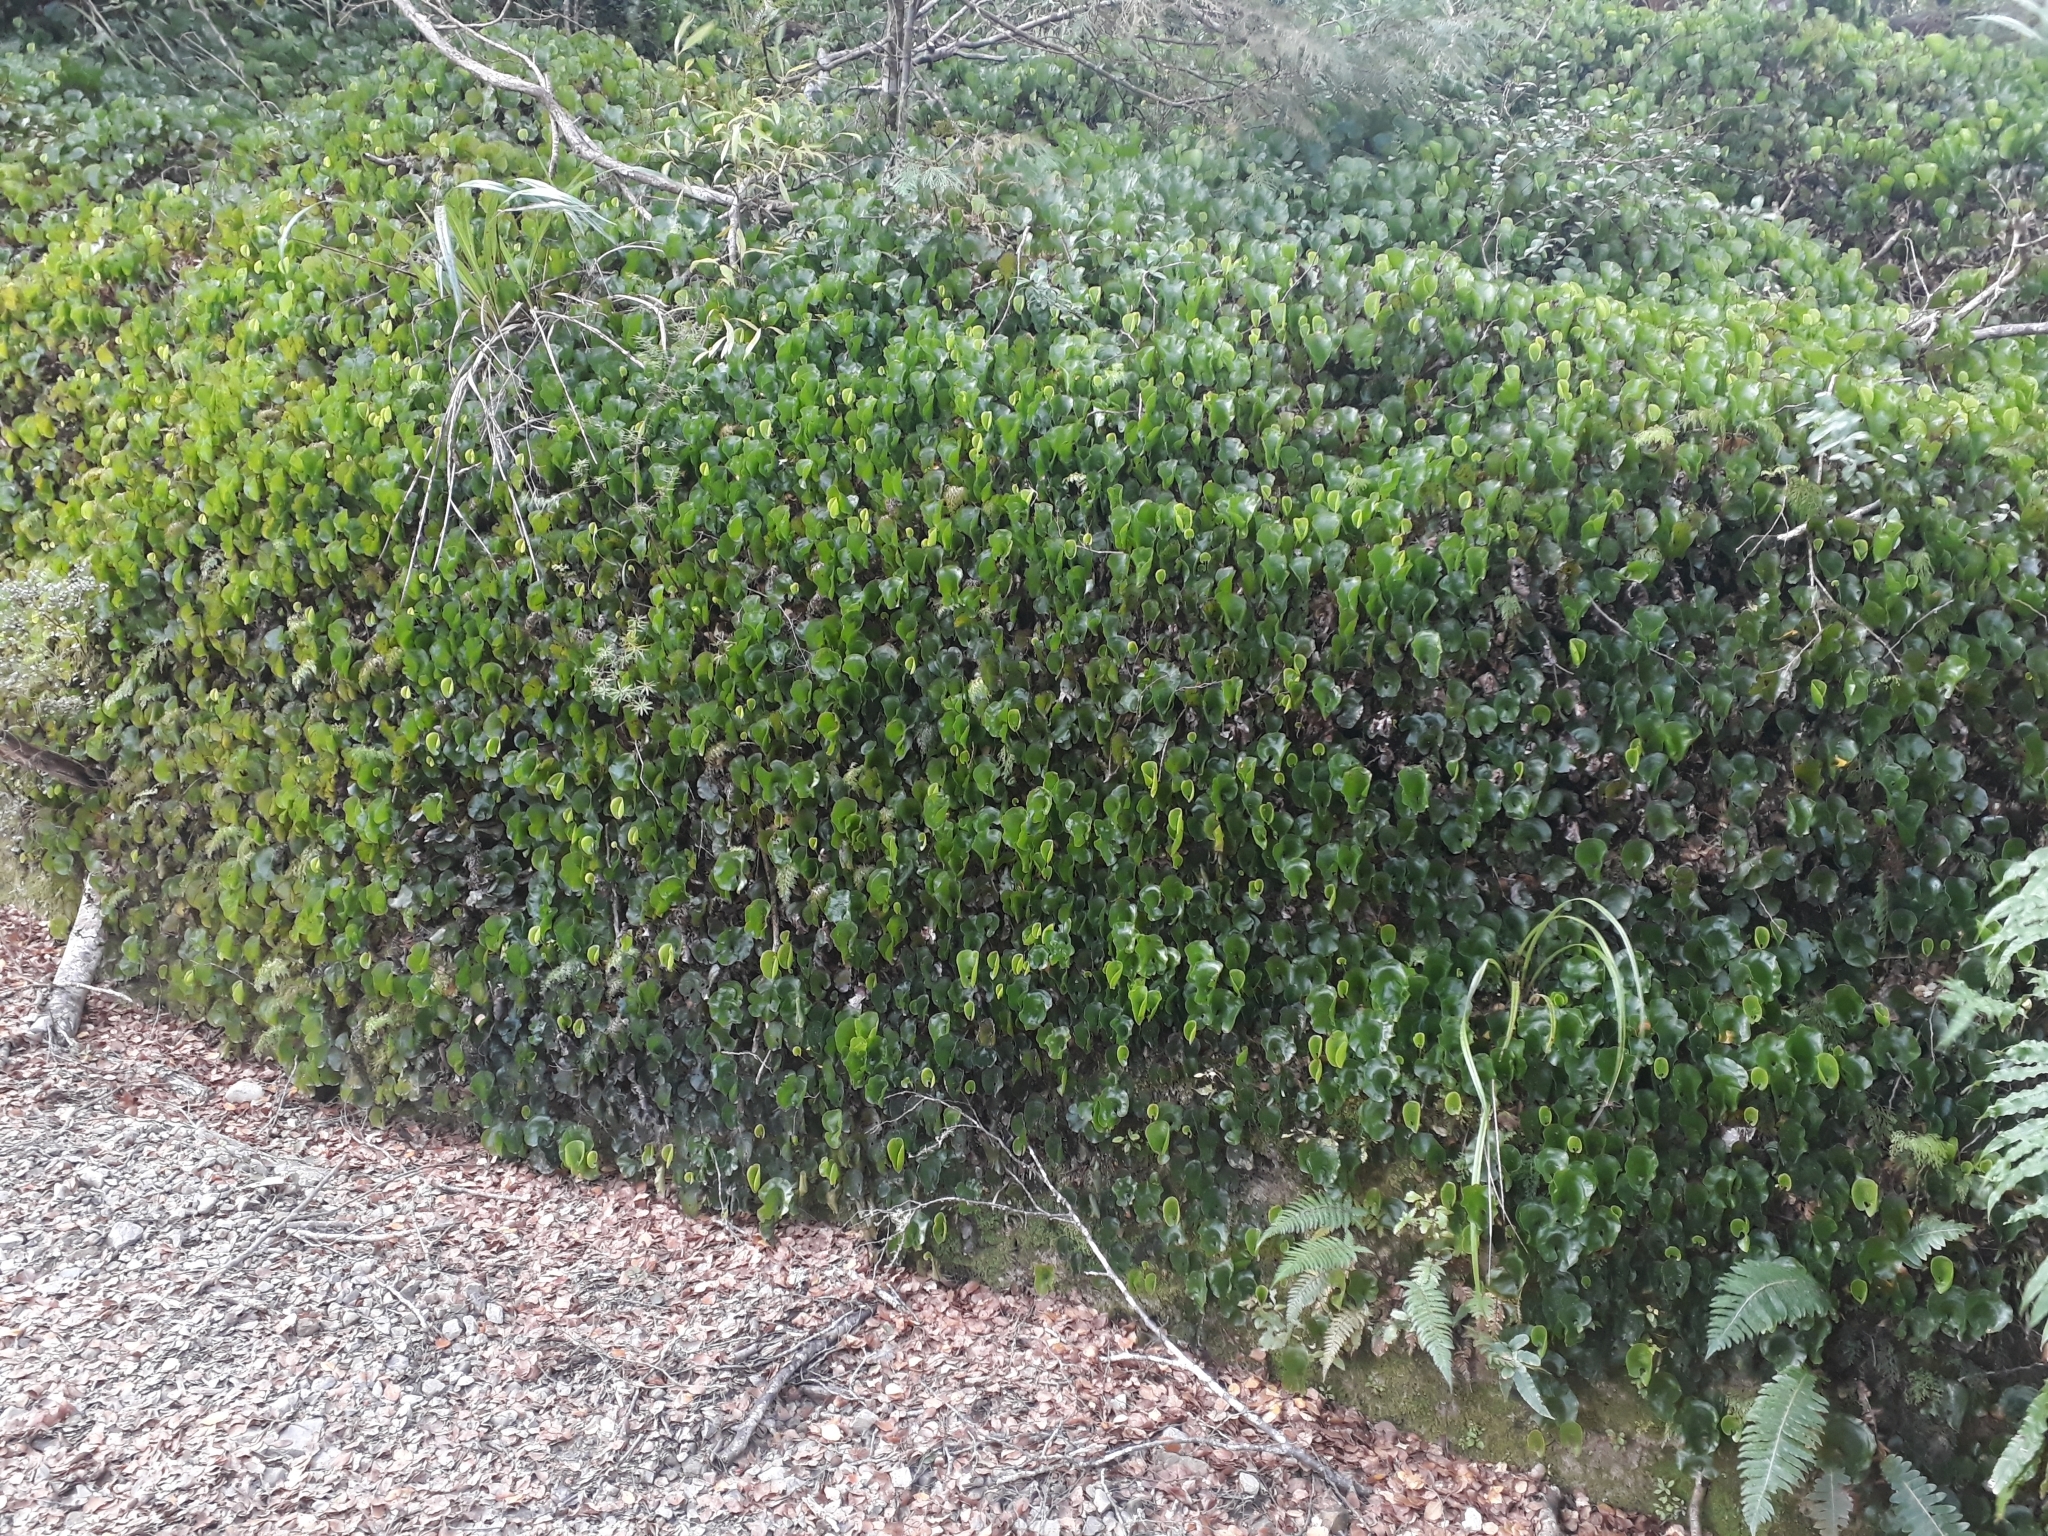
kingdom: Plantae
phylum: Tracheophyta
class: Polypodiopsida
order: Hymenophyllales
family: Hymenophyllaceae
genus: Hymenophyllum
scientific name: Hymenophyllum nephrophyllum
